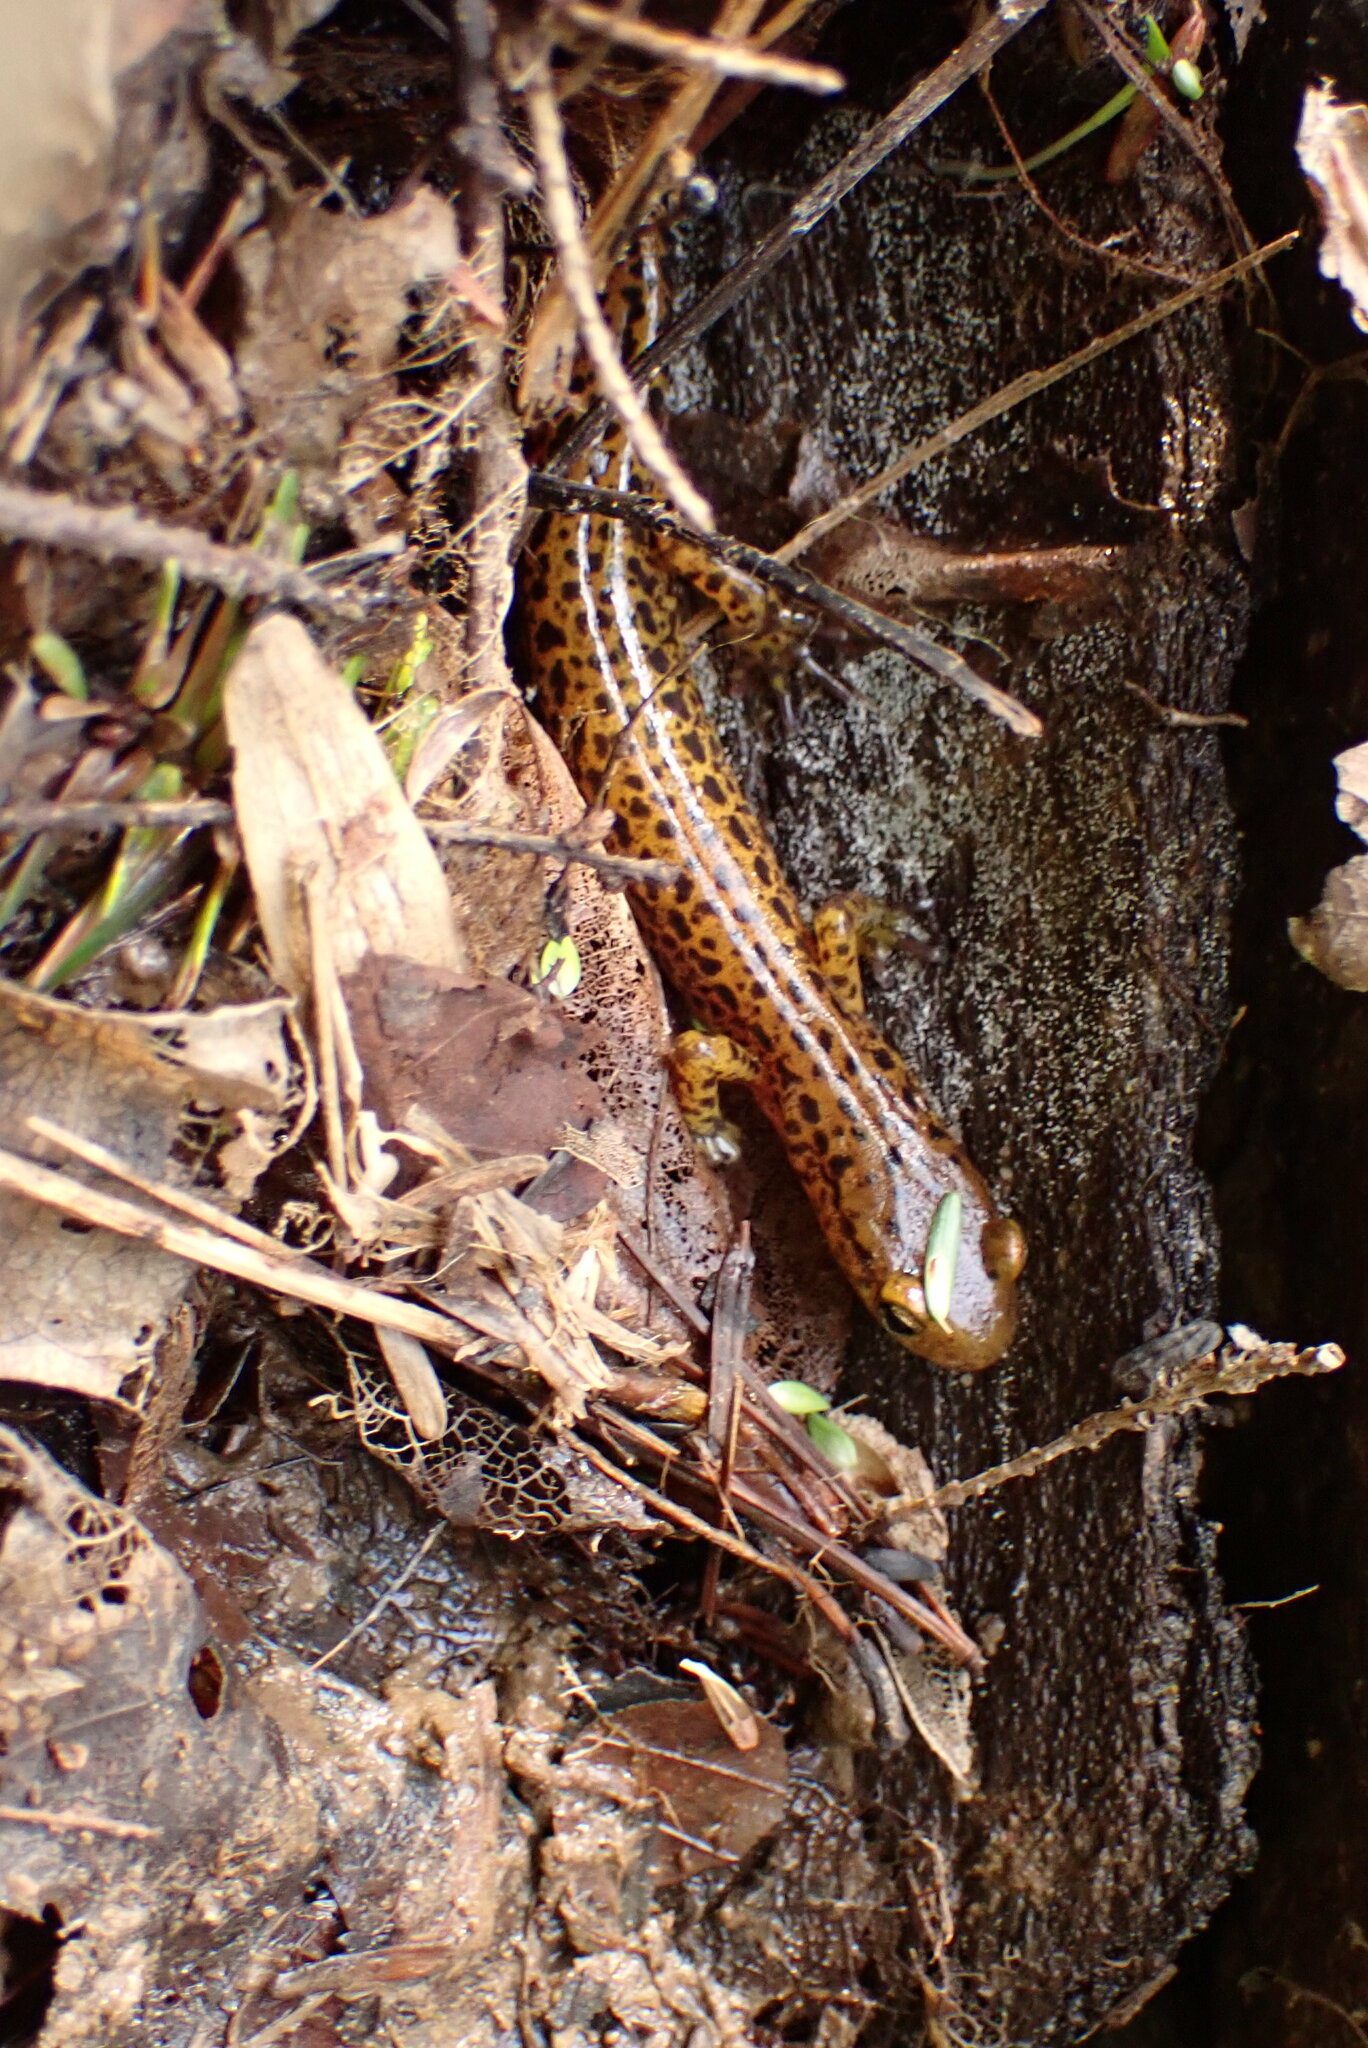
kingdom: Animalia
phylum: Chordata
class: Amphibia
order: Caudata
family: Plethodontidae
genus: Eurycea
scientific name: Eurycea longicauda
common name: Long-tailed salamander
